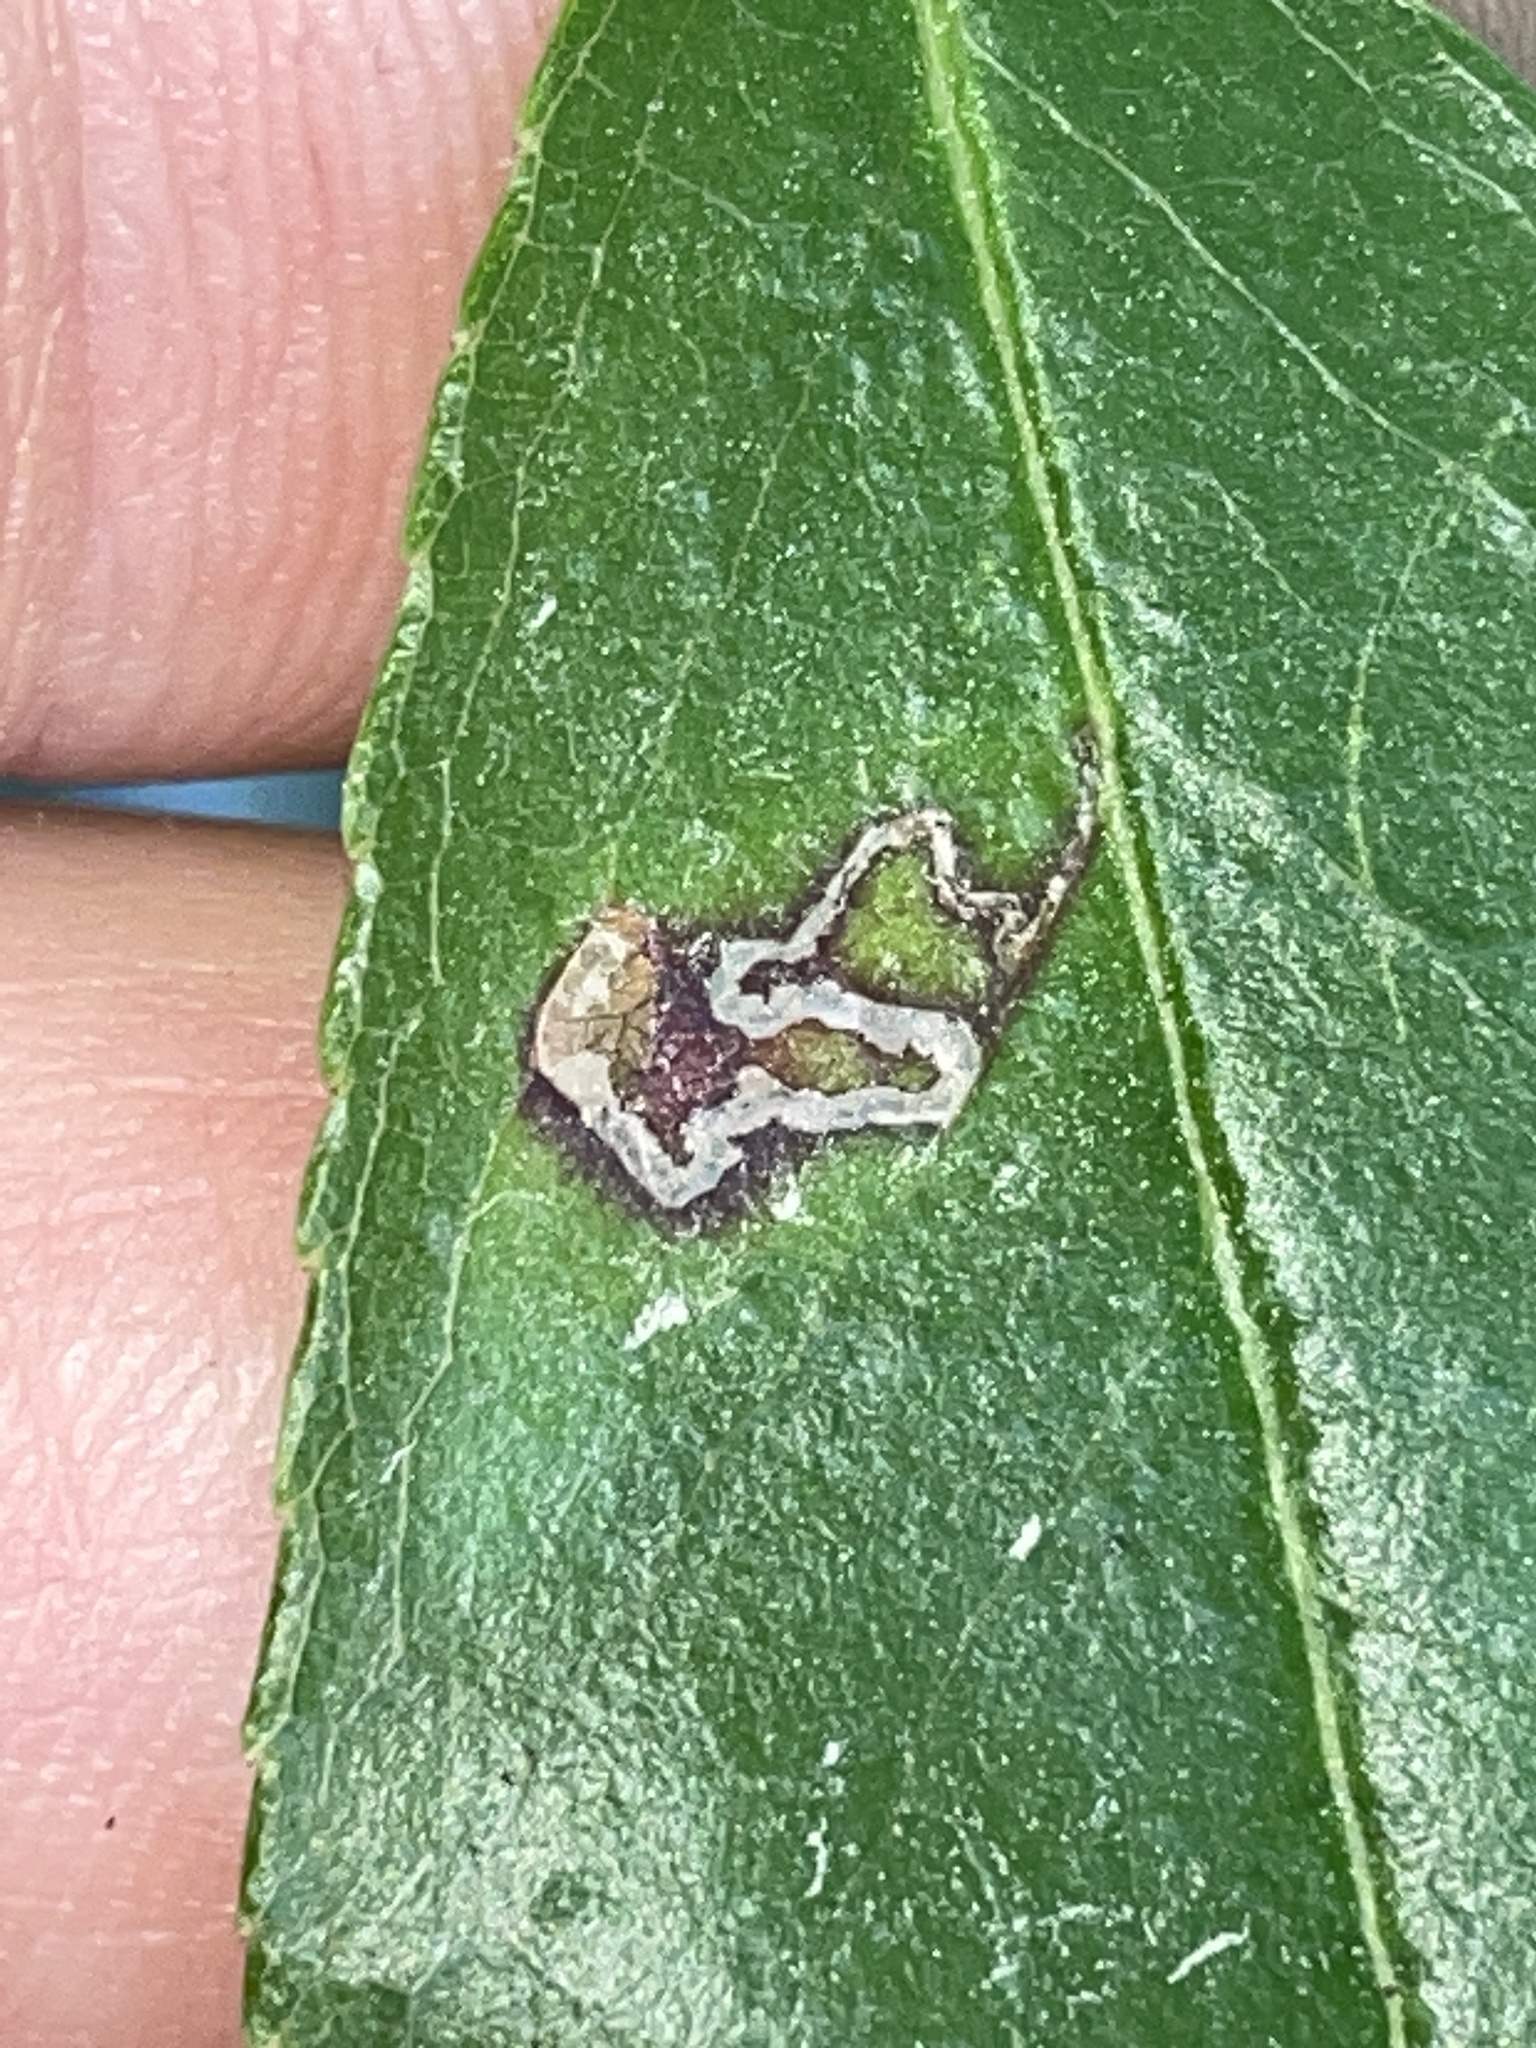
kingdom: Animalia
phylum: Arthropoda
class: Insecta
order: Lepidoptera
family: Nepticulidae
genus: Stigmella
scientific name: Stigmella prunifoliella
